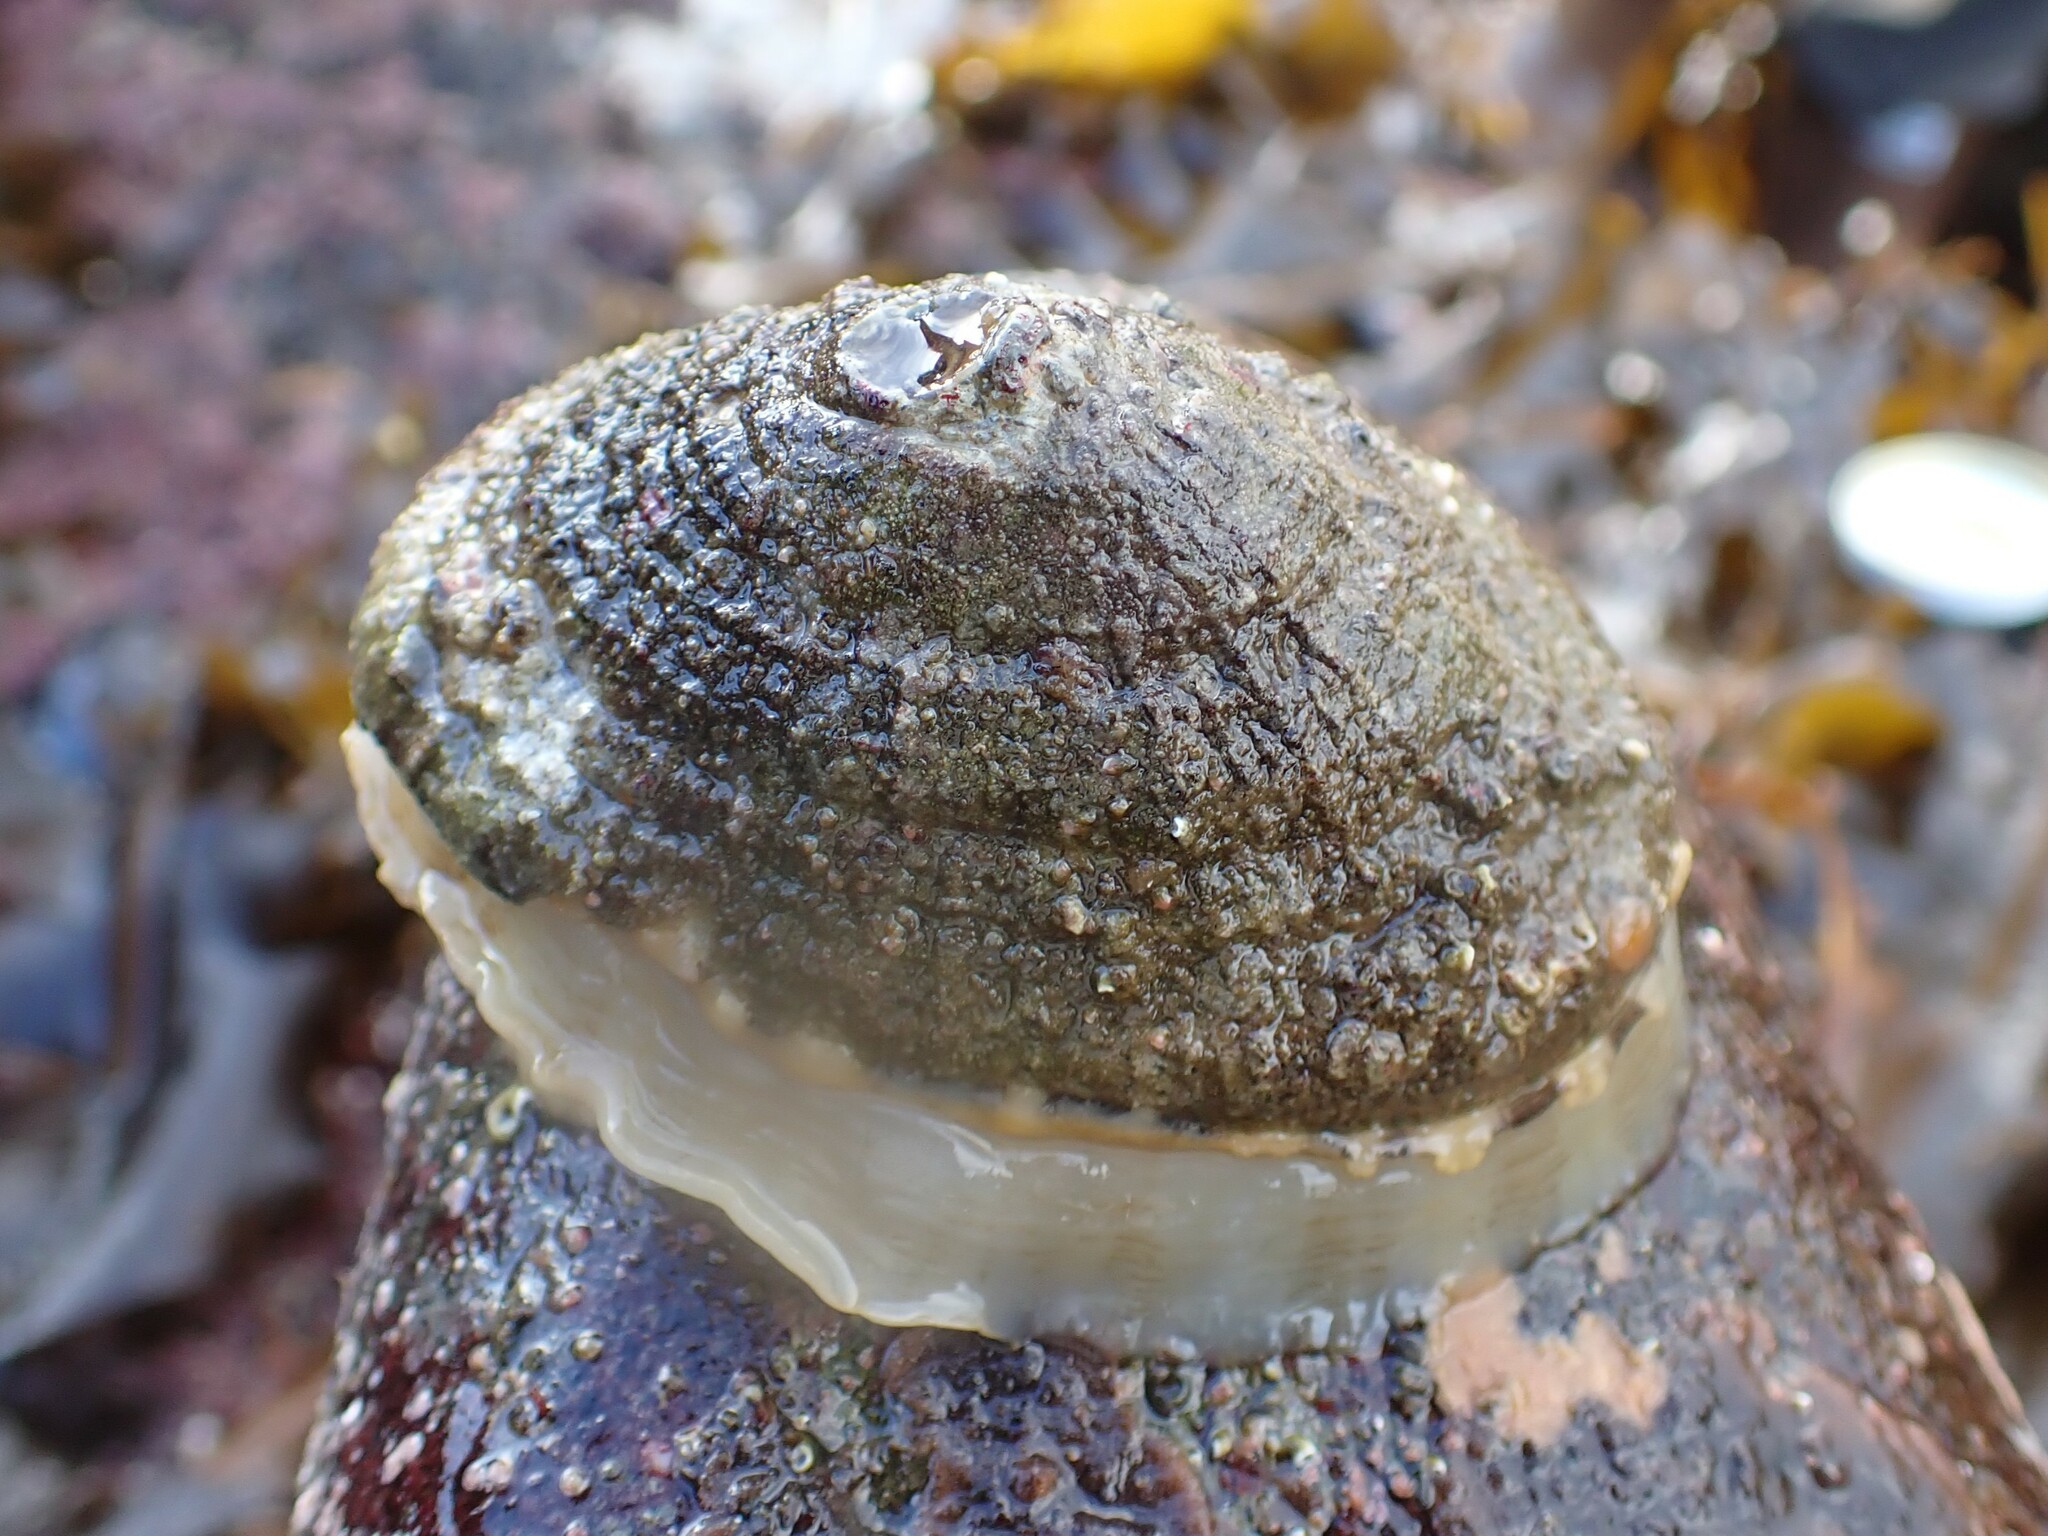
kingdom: Animalia
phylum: Mollusca
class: Gastropoda
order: Lepetellida
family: Fissurellidae
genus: Diodora
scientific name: Diodora aspera
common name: Rough keyhole limpet
